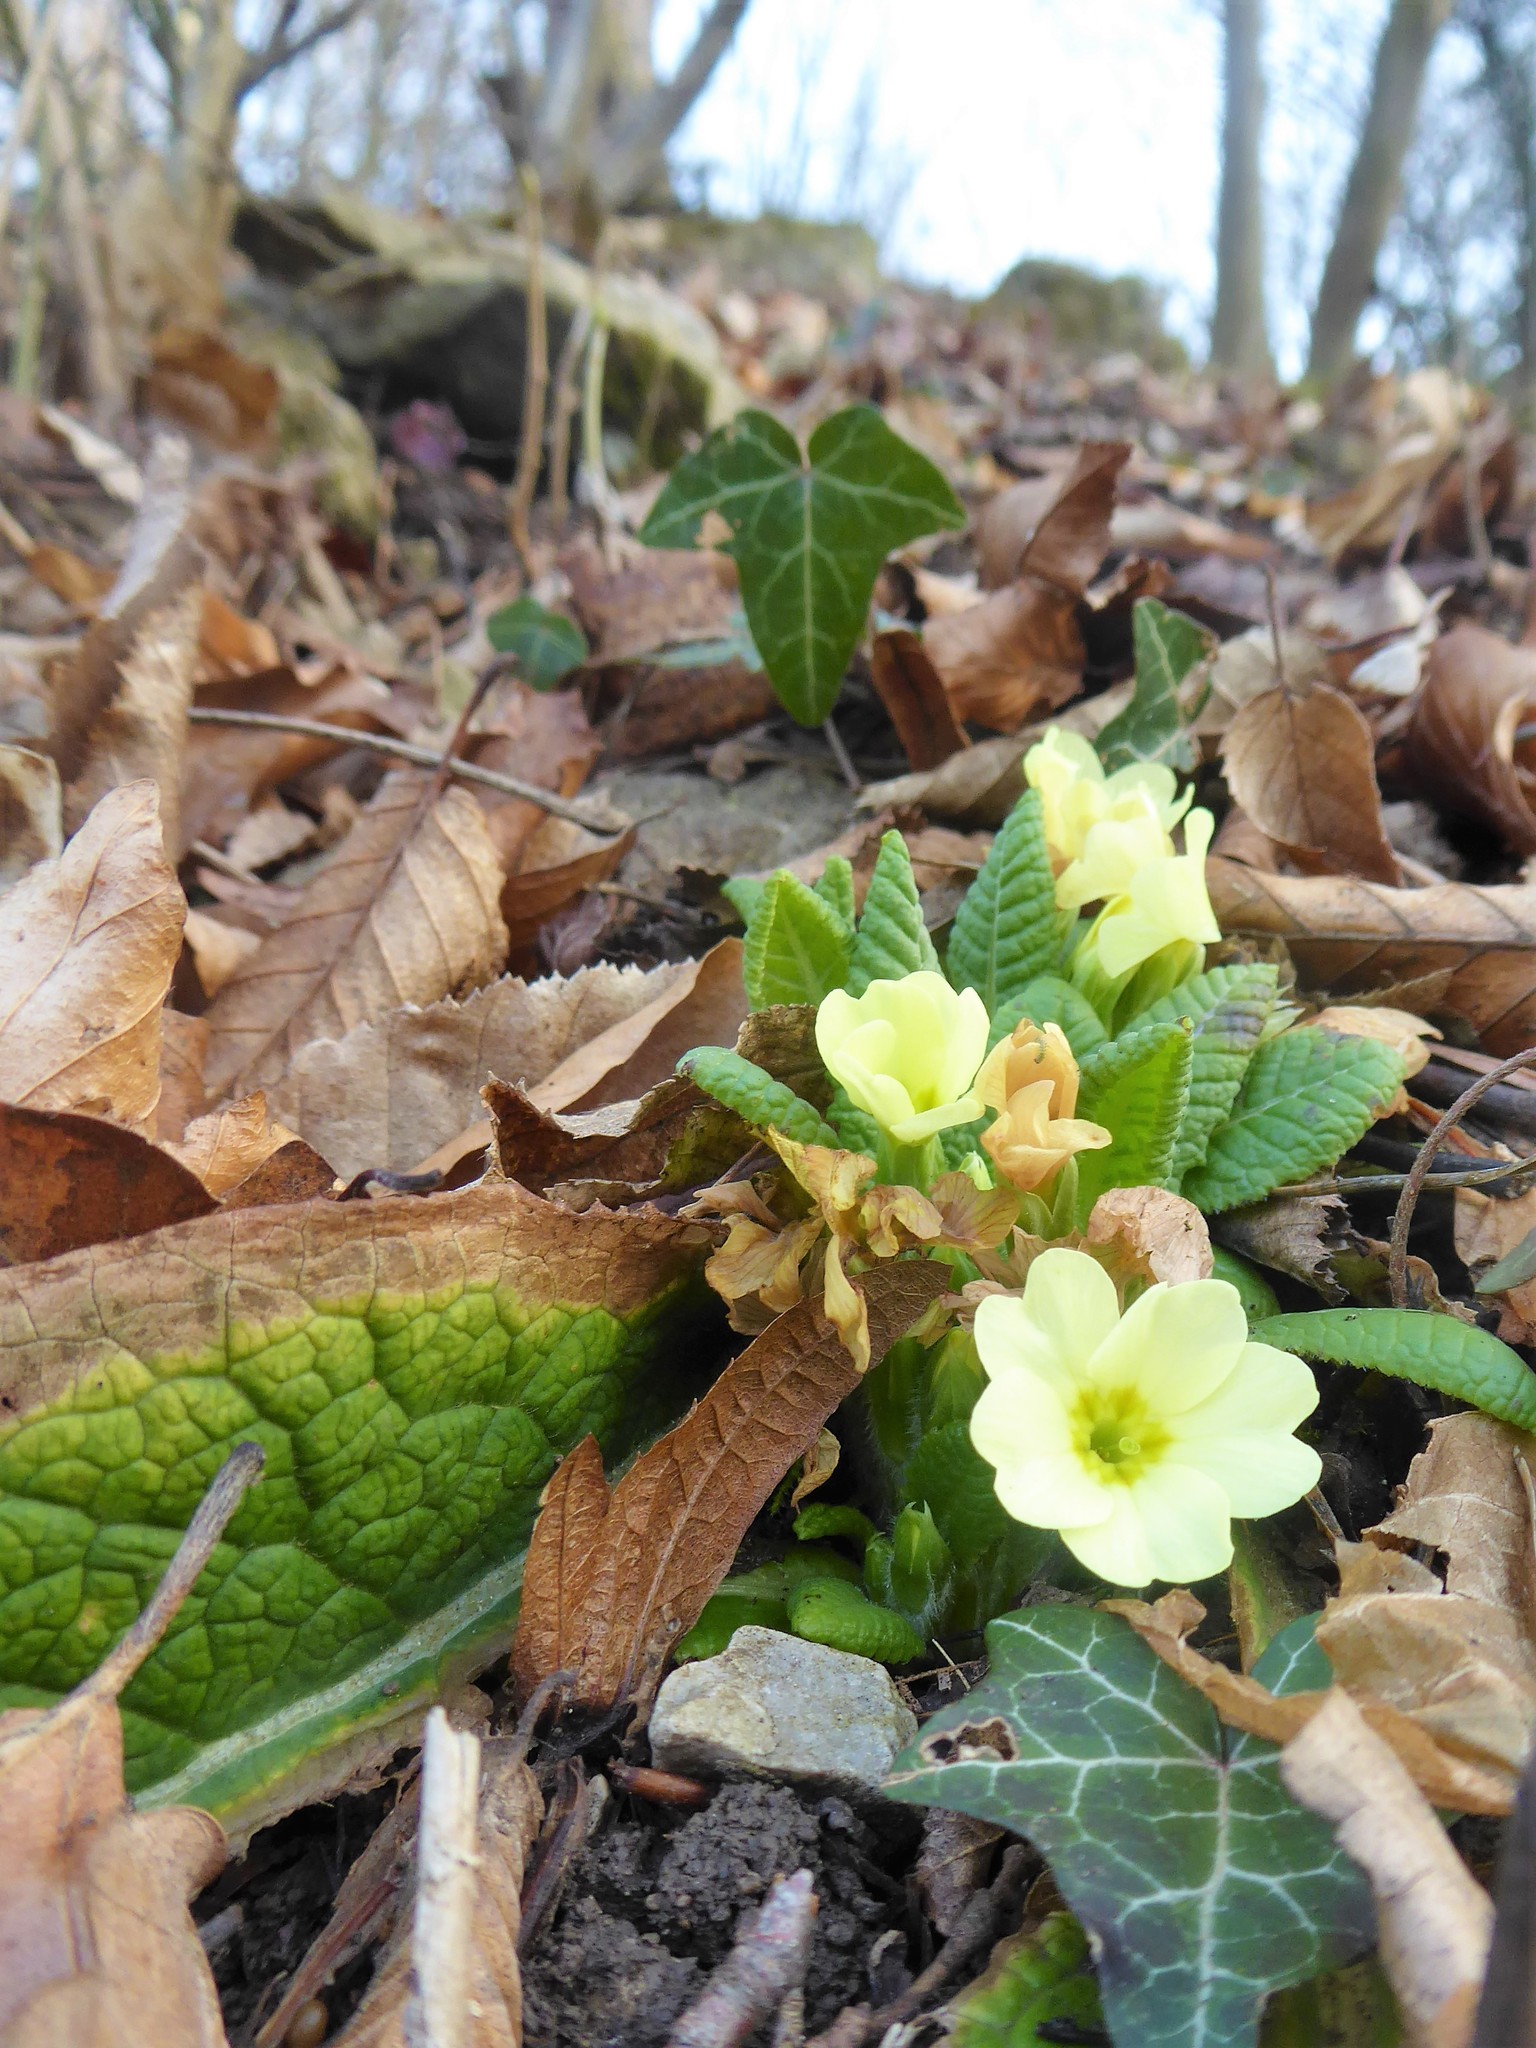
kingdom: Plantae
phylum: Tracheophyta
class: Magnoliopsida
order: Ericales
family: Primulaceae
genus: Primula
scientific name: Primula vulgaris
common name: Primrose
